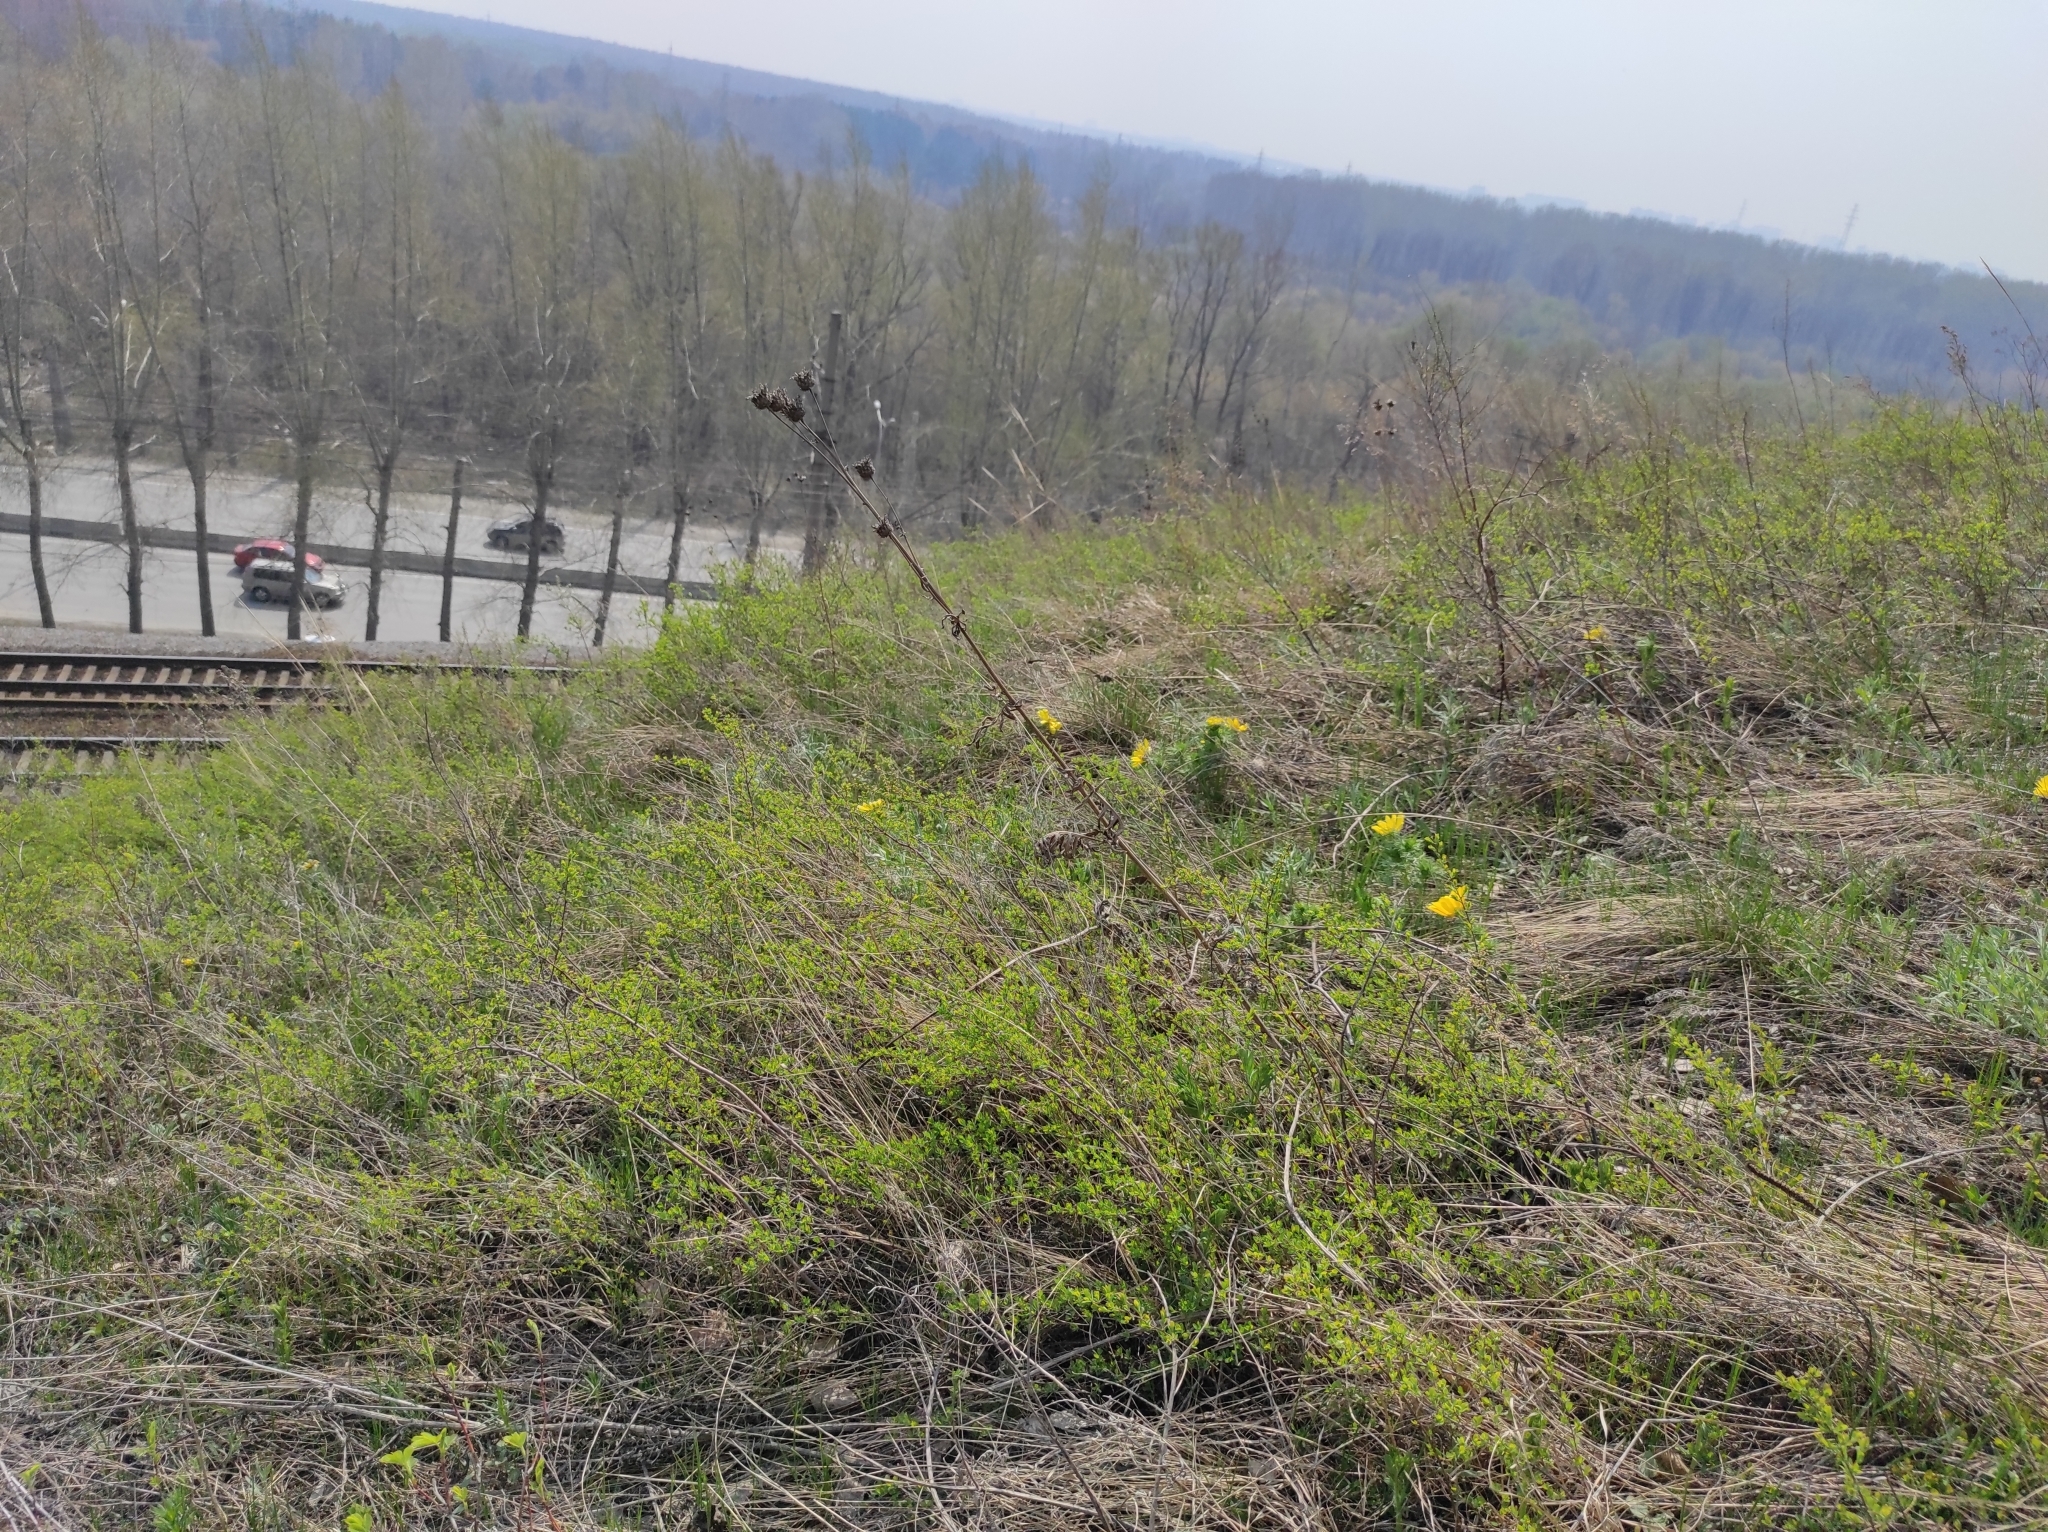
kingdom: Plantae
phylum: Tracheophyta
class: Magnoliopsida
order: Ranunculales
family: Ranunculaceae
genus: Adonis
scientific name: Adonis vernalis
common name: Yellow pheasants-eye
